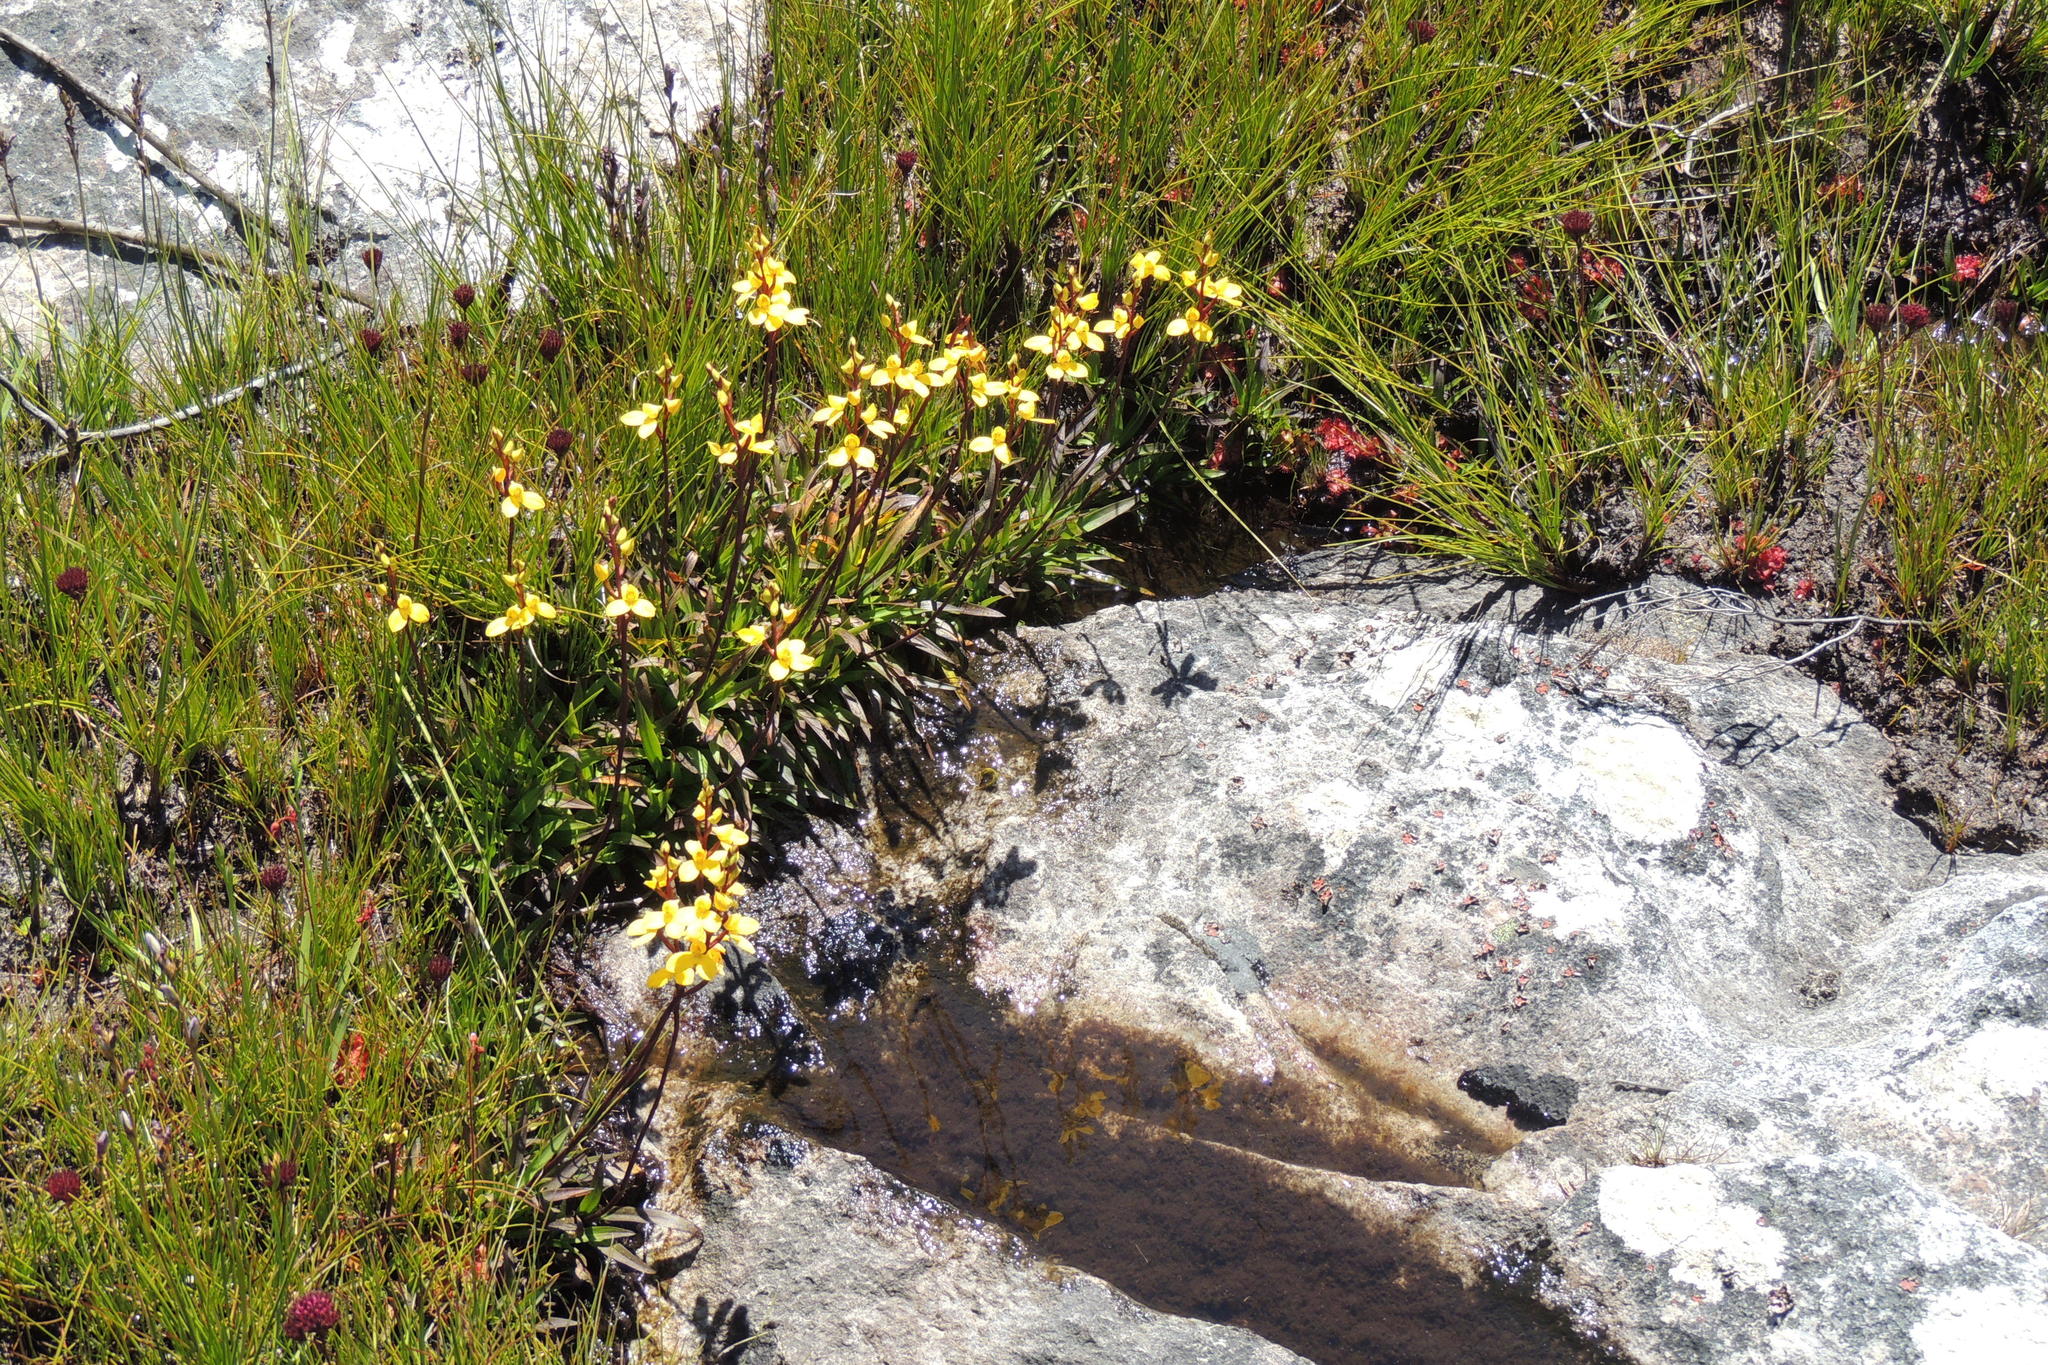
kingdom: Plantae
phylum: Tracheophyta
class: Liliopsida
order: Asparagales
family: Orchidaceae
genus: Disa
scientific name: Disa aurata
